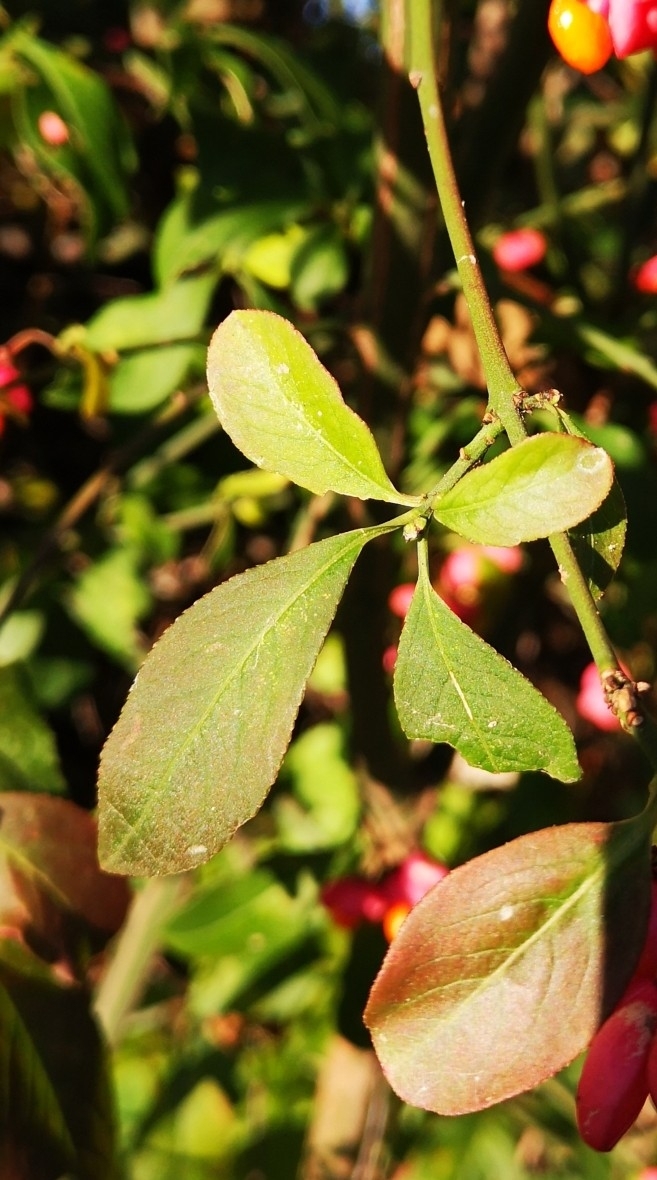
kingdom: Plantae
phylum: Tracheophyta
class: Magnoliopsida
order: Celastrales
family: Celastraceae
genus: Euonymus
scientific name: Euonymus europaeus
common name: Spindle
